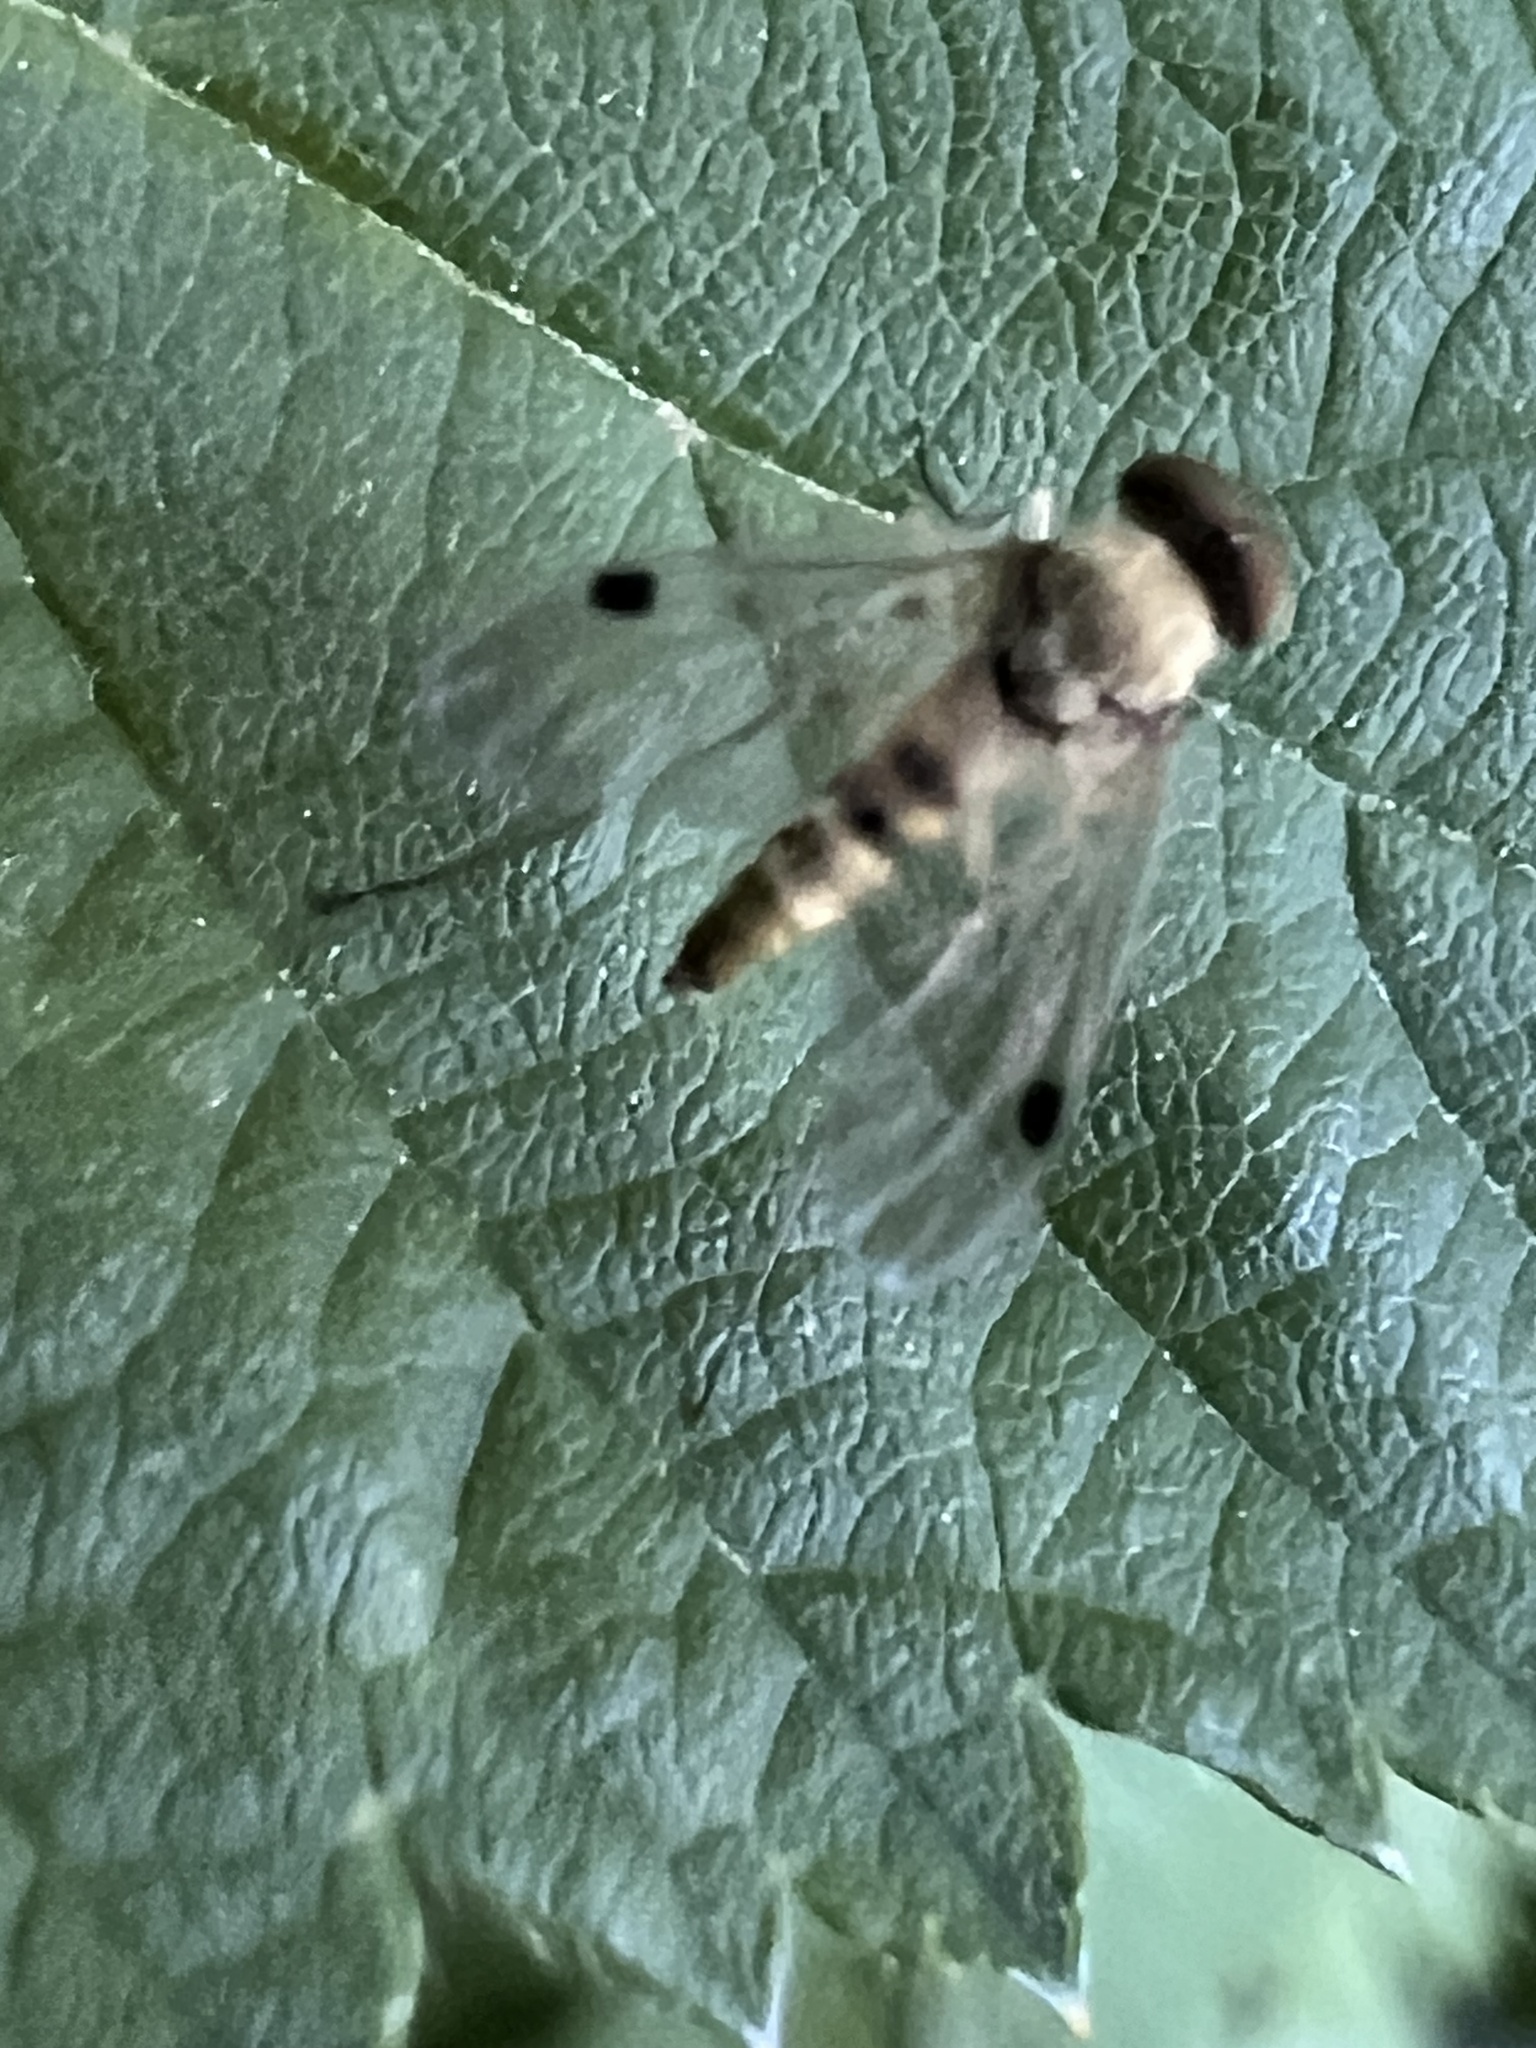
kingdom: Animalia
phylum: Arthropoda
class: Insecta
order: Diptera
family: Rhagionidae
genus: Chrysopilus
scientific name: Chrysopilus modestus
